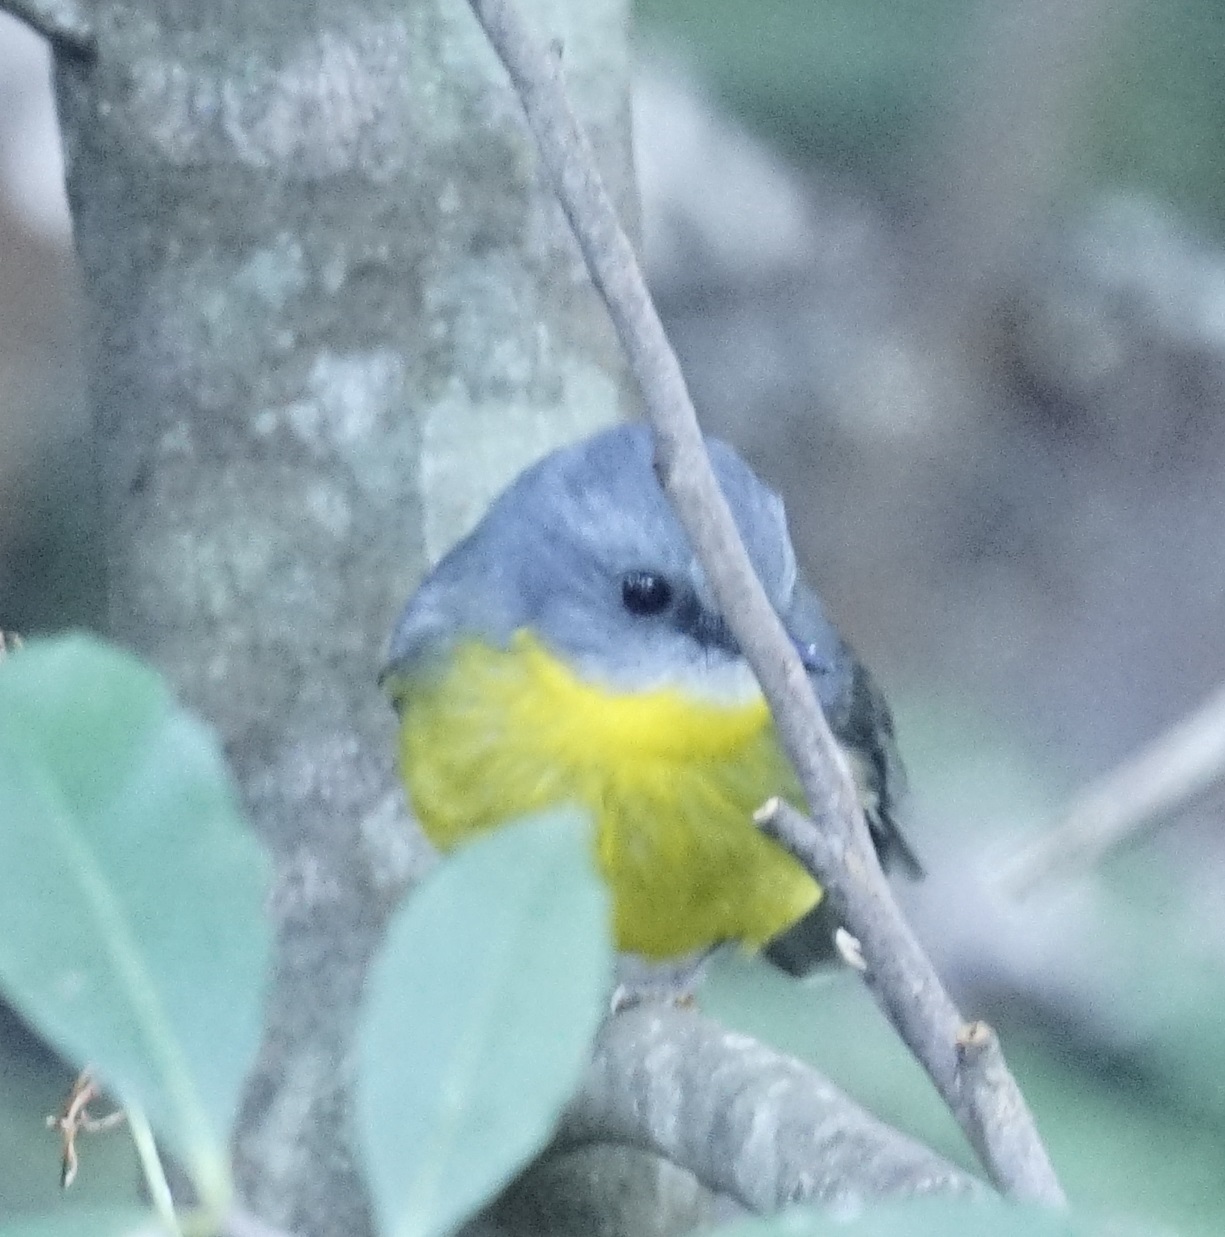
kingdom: Animalia
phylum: Chordata
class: Aves
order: Passeriformes
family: Petroicidae
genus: Eopsaltria
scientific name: Eopsaltria australis
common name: Eastern yellow robin
